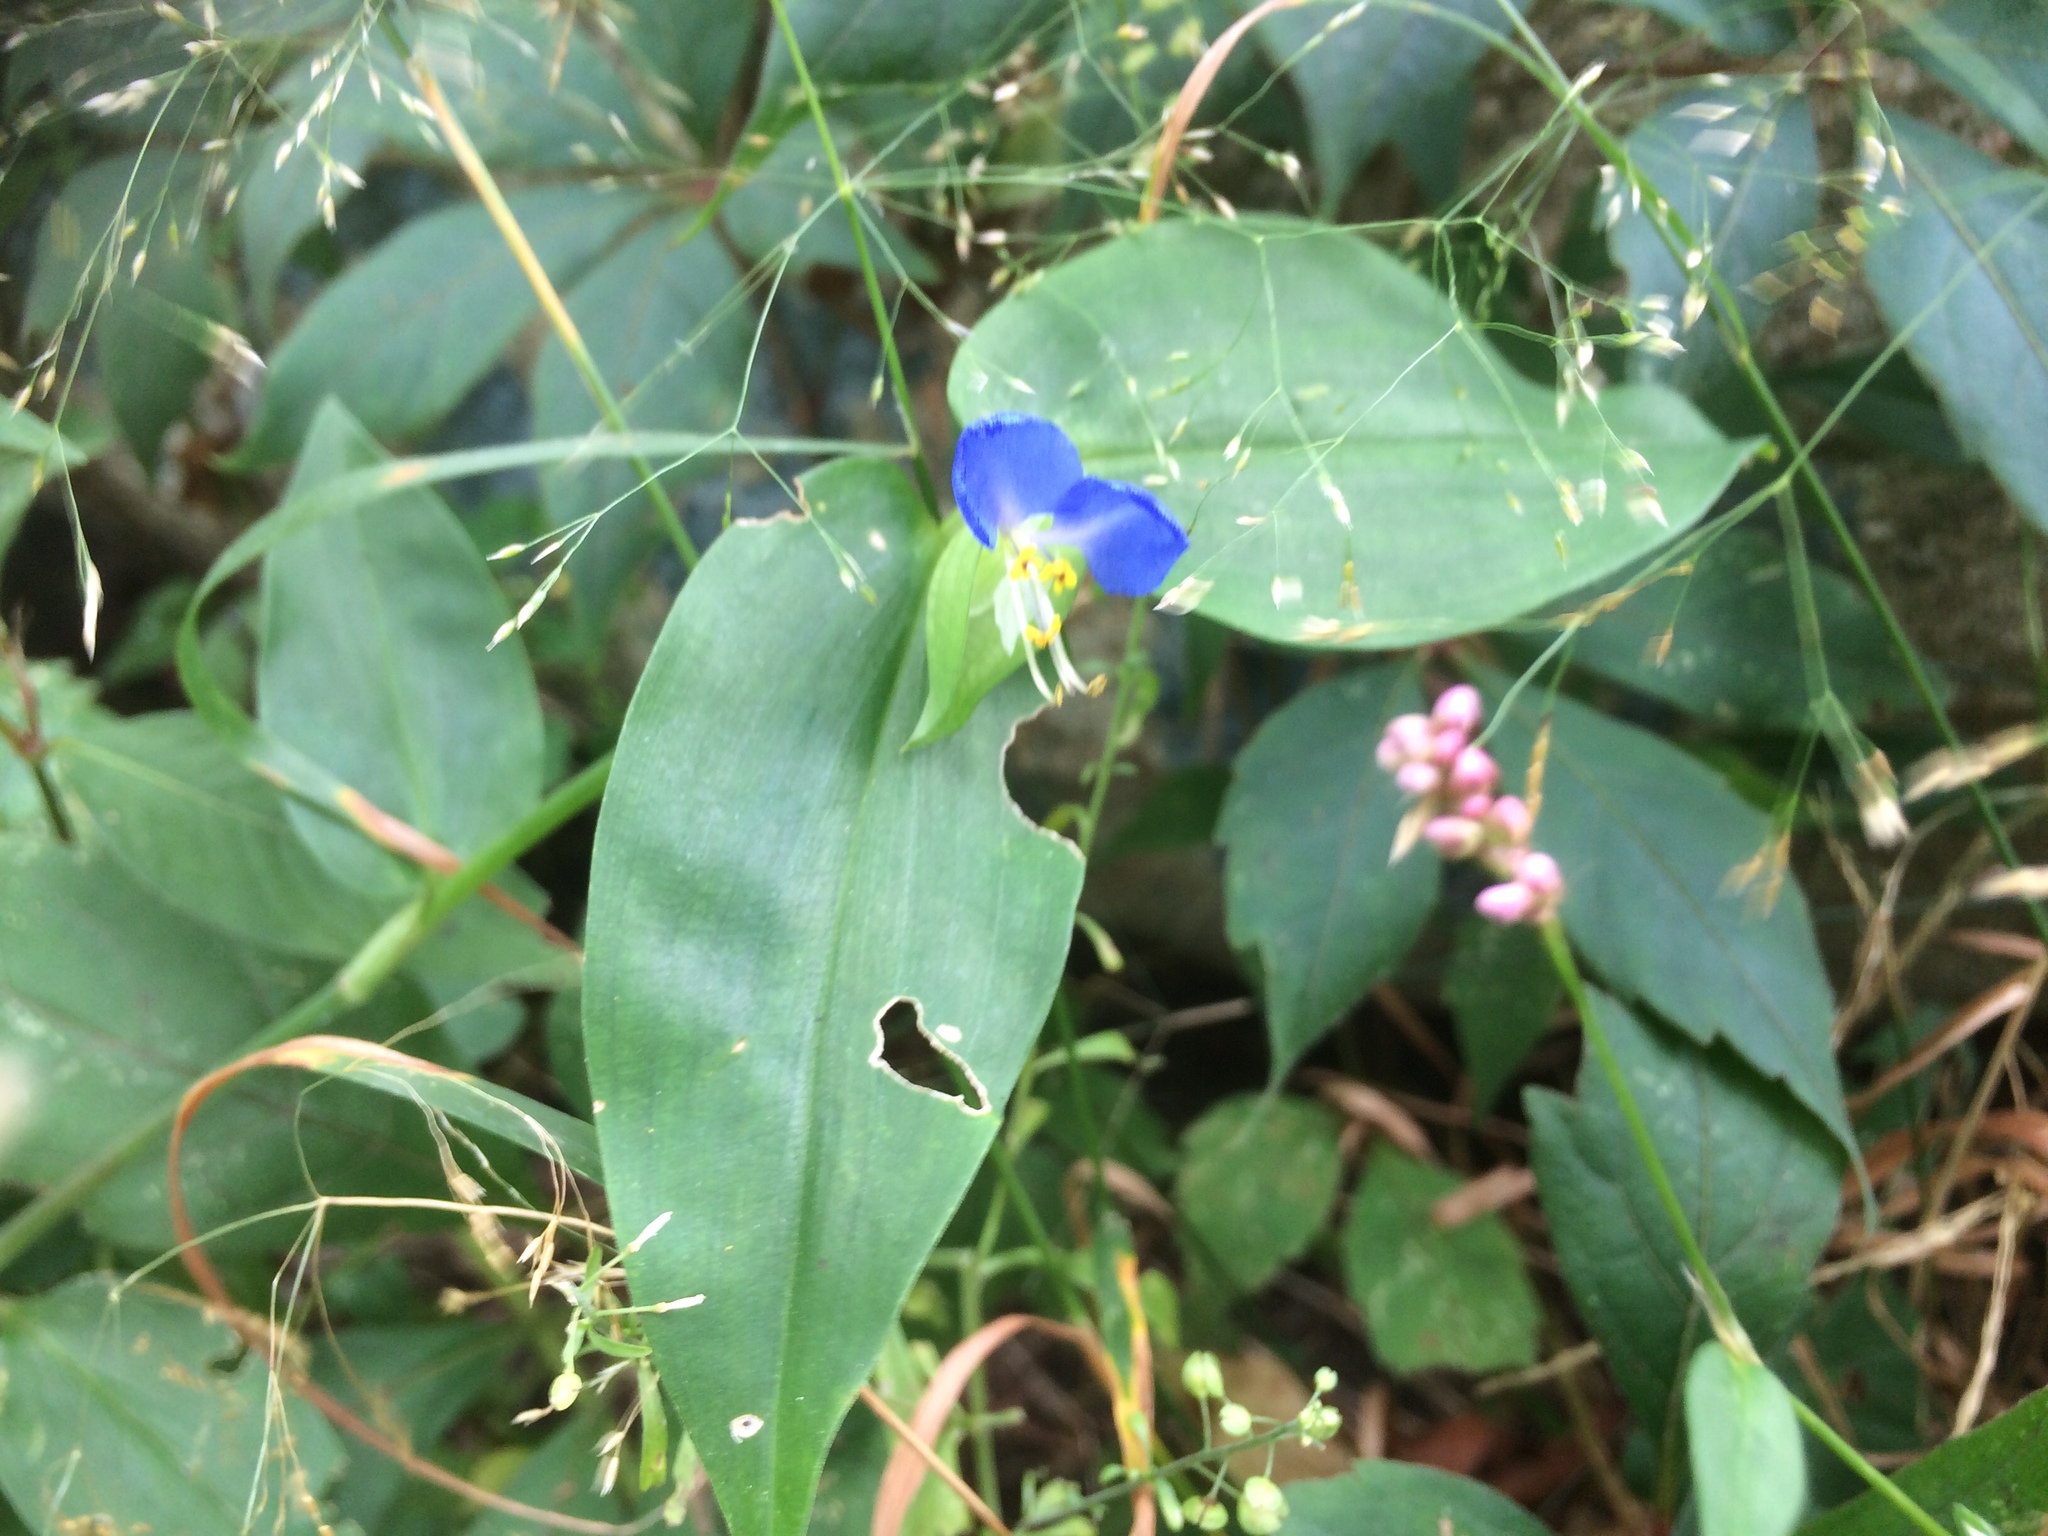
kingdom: Plantae
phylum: Tracheophyta
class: Liliopsida
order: Commelinales
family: Commelinaceae
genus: Commelina
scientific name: Commelina communis
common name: Asiatic dayflower
